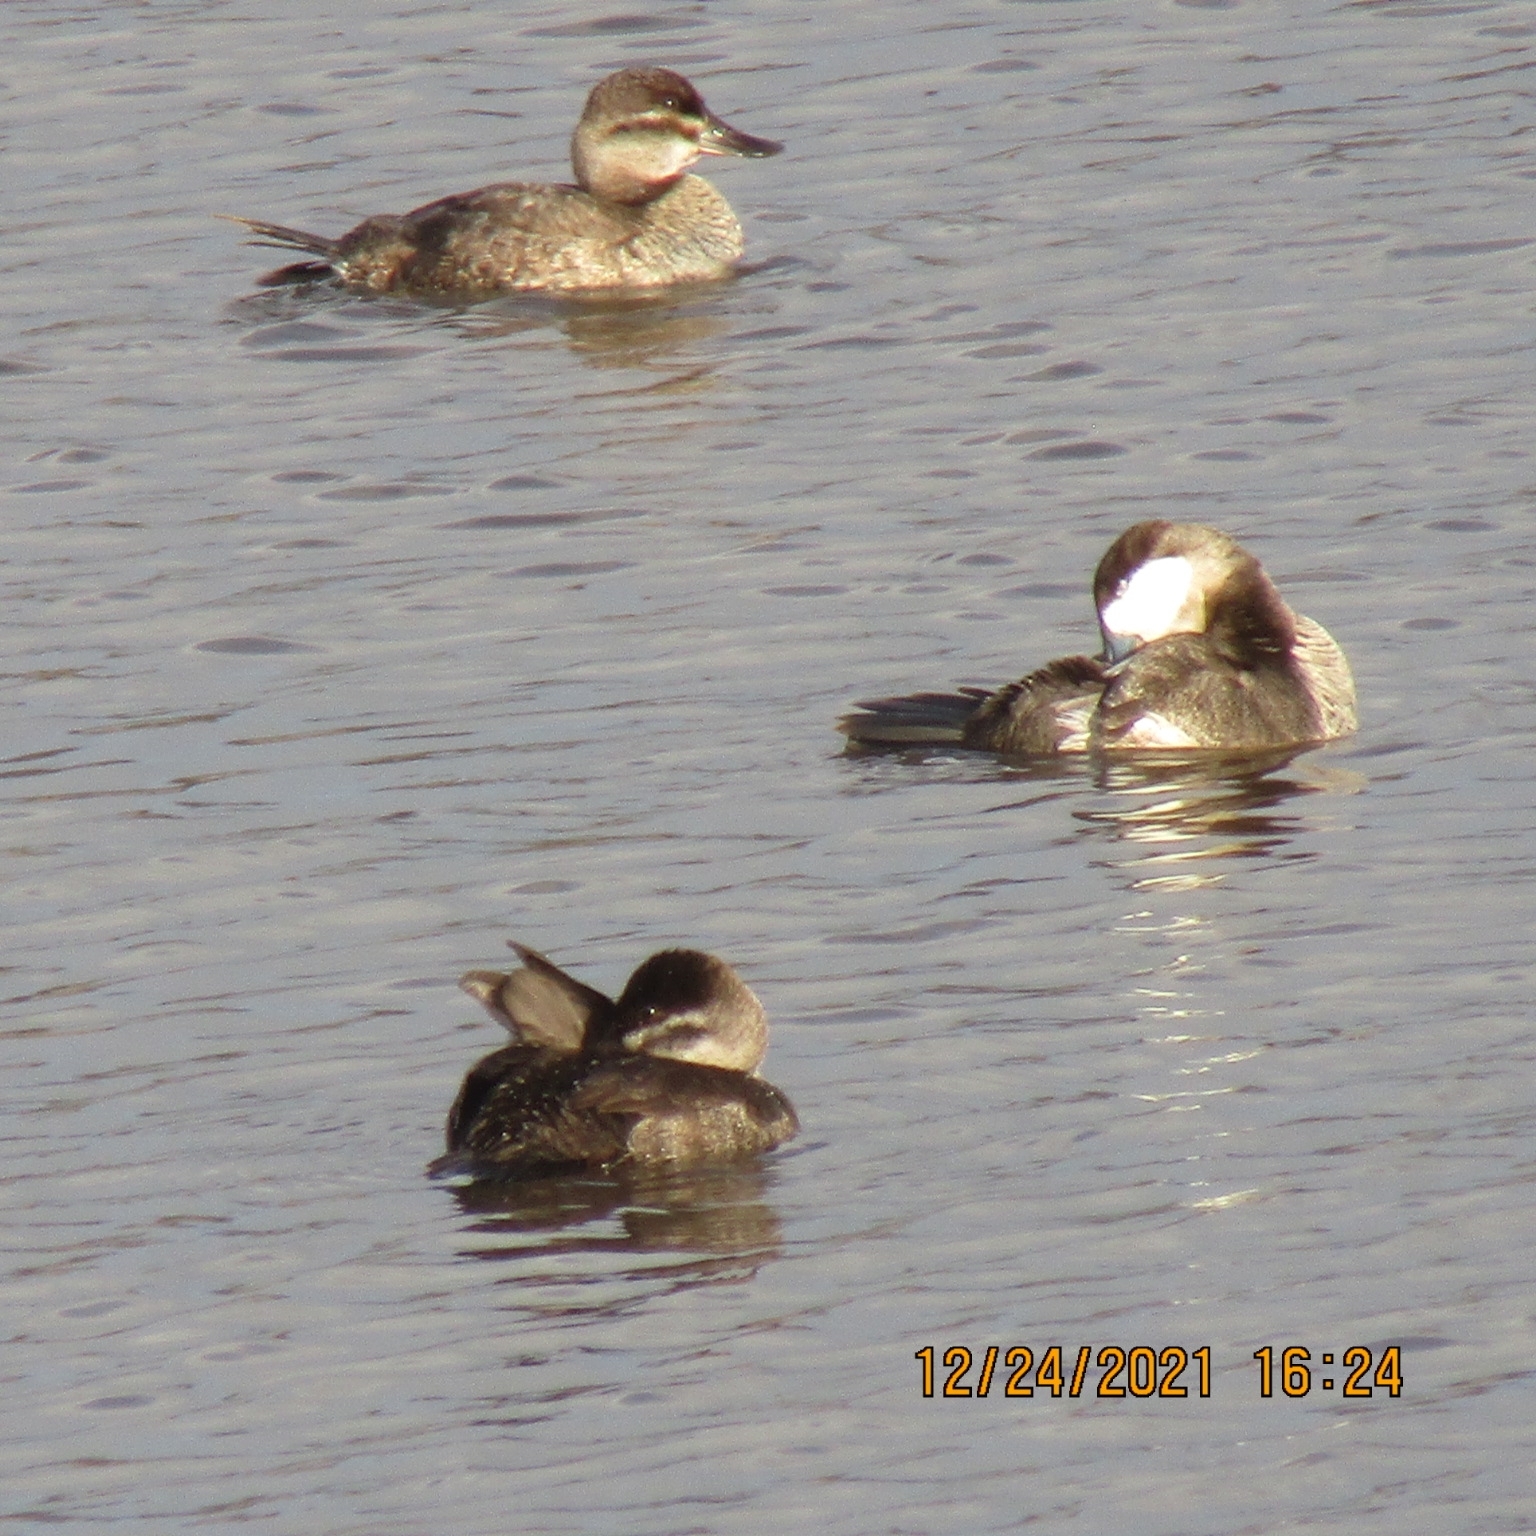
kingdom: Animalia
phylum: Chordata
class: Aves
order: Anseriformes
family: Anatidae
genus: Oxyura
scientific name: Oxyura jamaicensis
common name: Ruddy duck
